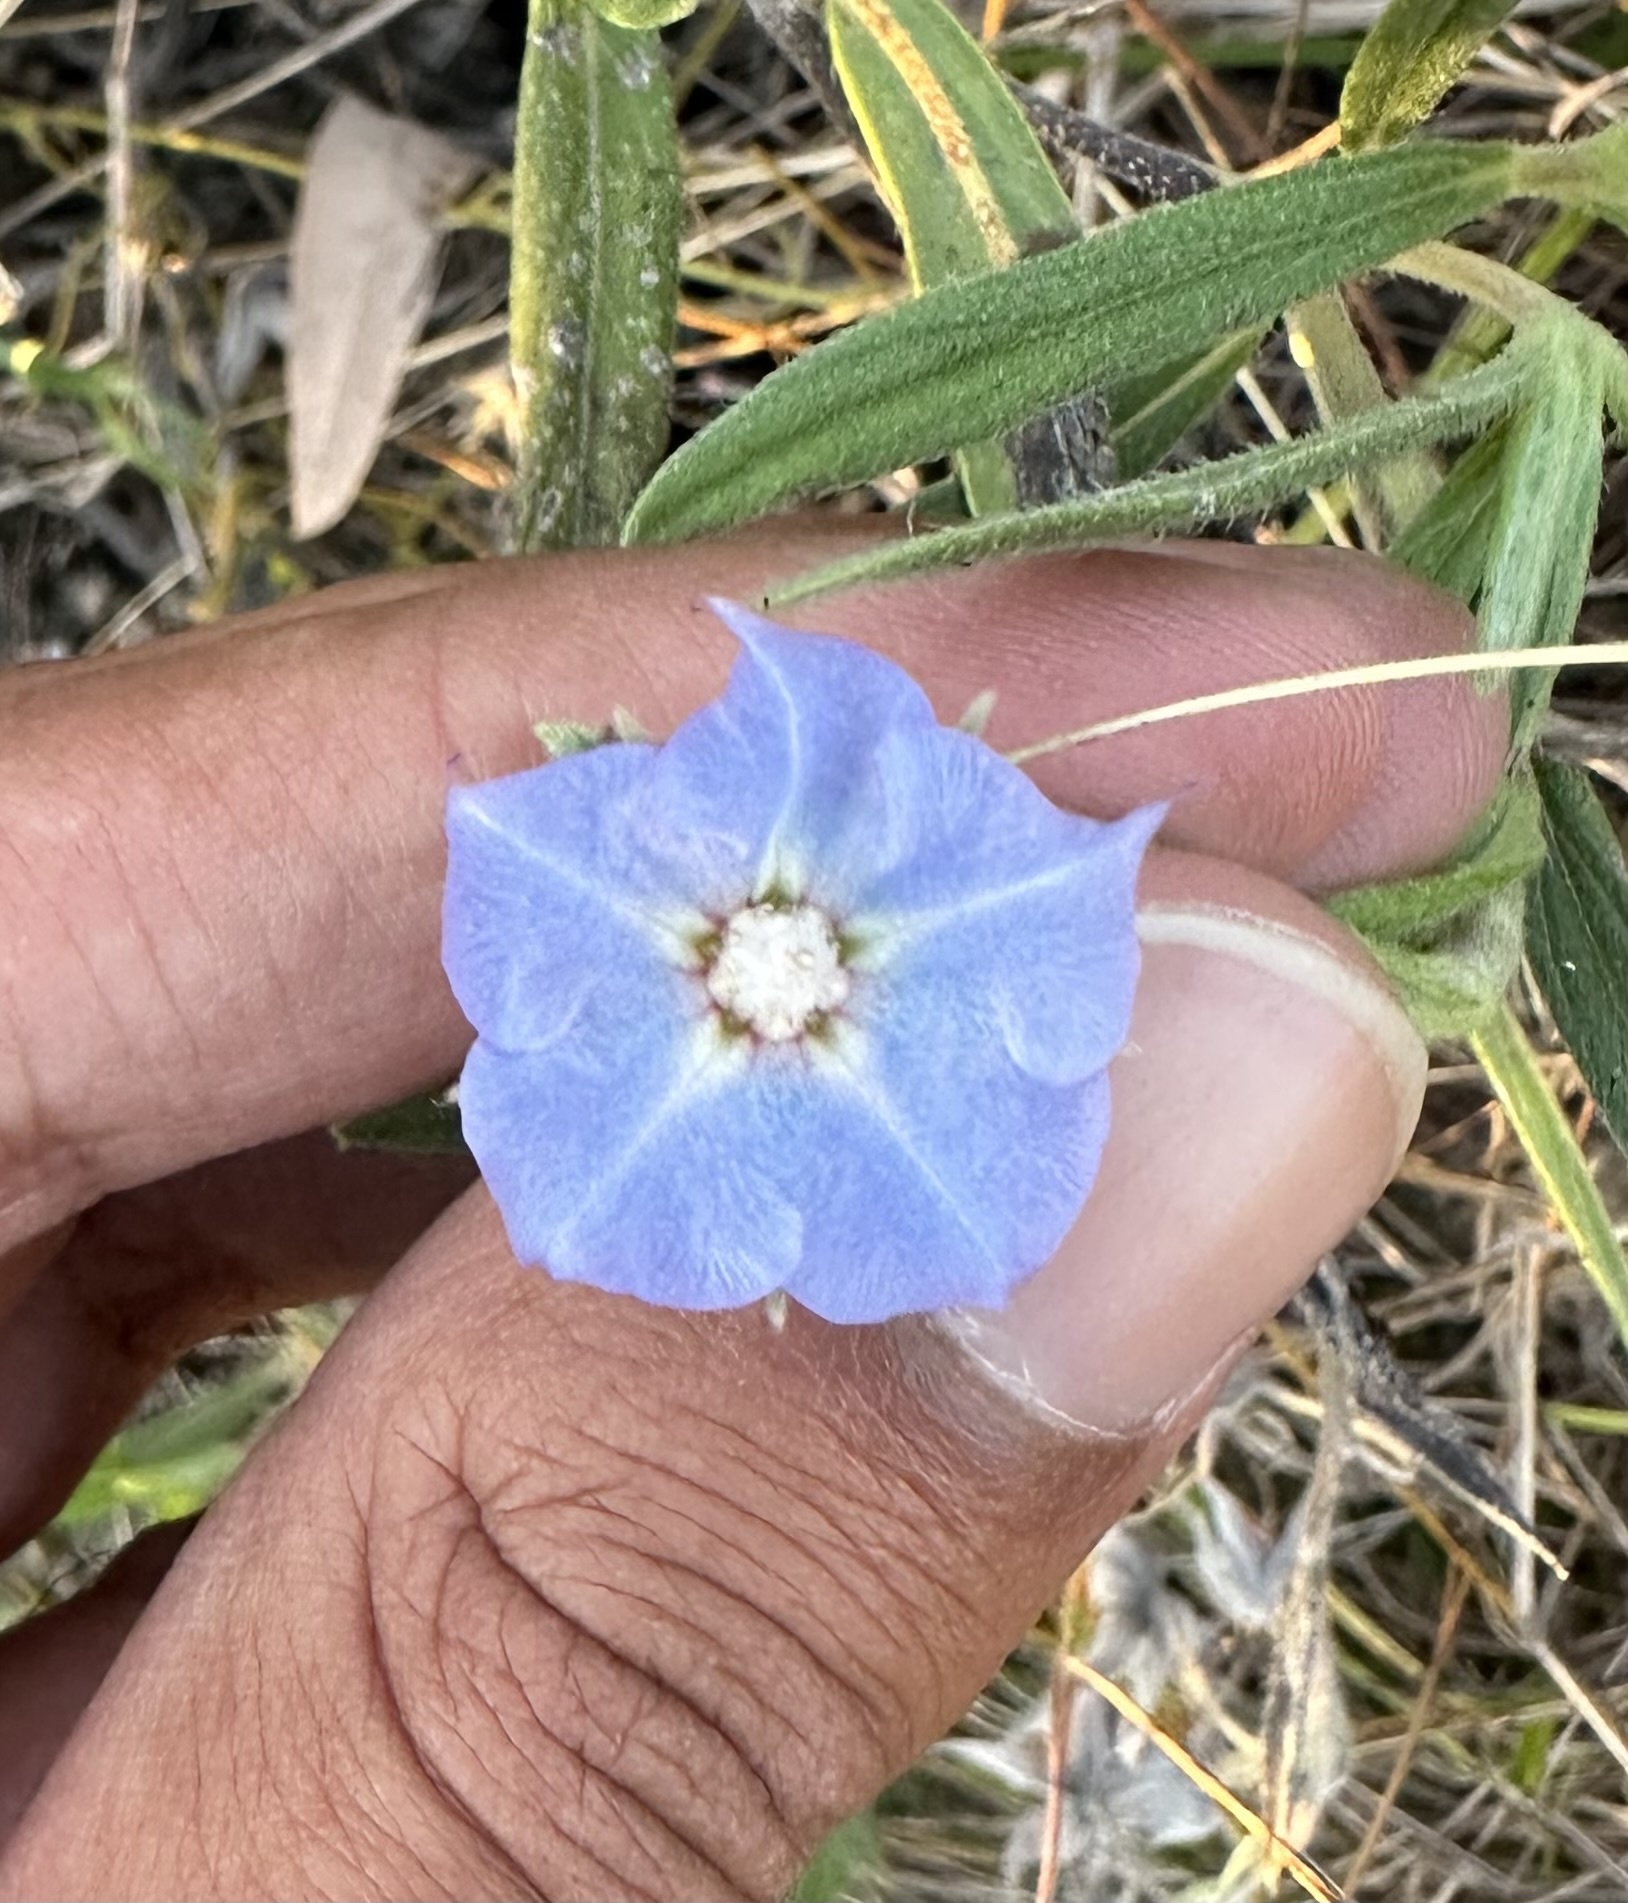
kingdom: Plantae
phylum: Tracheophyta
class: Magnoliopsida
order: Boraginales
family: Boraginaceae
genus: Trichodesma
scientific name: Trichodesma zeylanicum
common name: Camelbush
